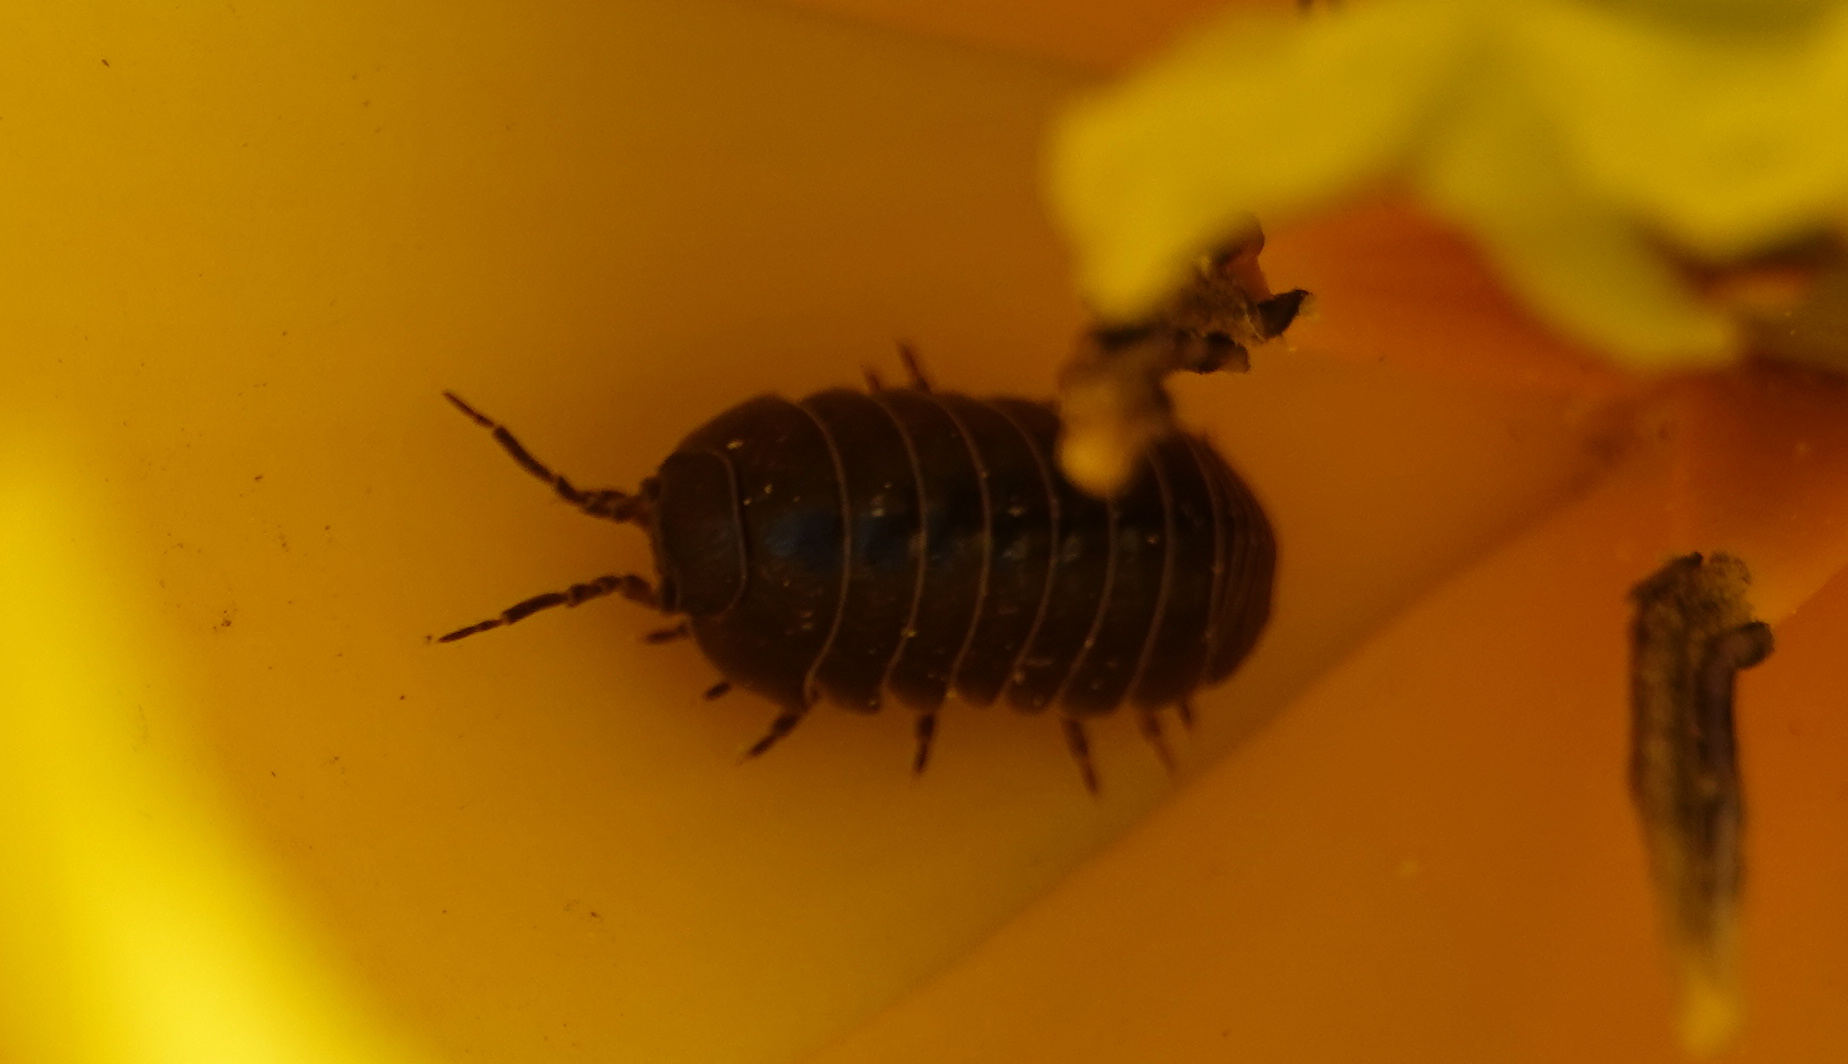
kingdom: Animalia
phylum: Arthropoda
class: Malacostraca
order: Isopoda
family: Armadillidiidae
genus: Armadillidium
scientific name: Armadillidium vulgare
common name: Common pill woodlouse
